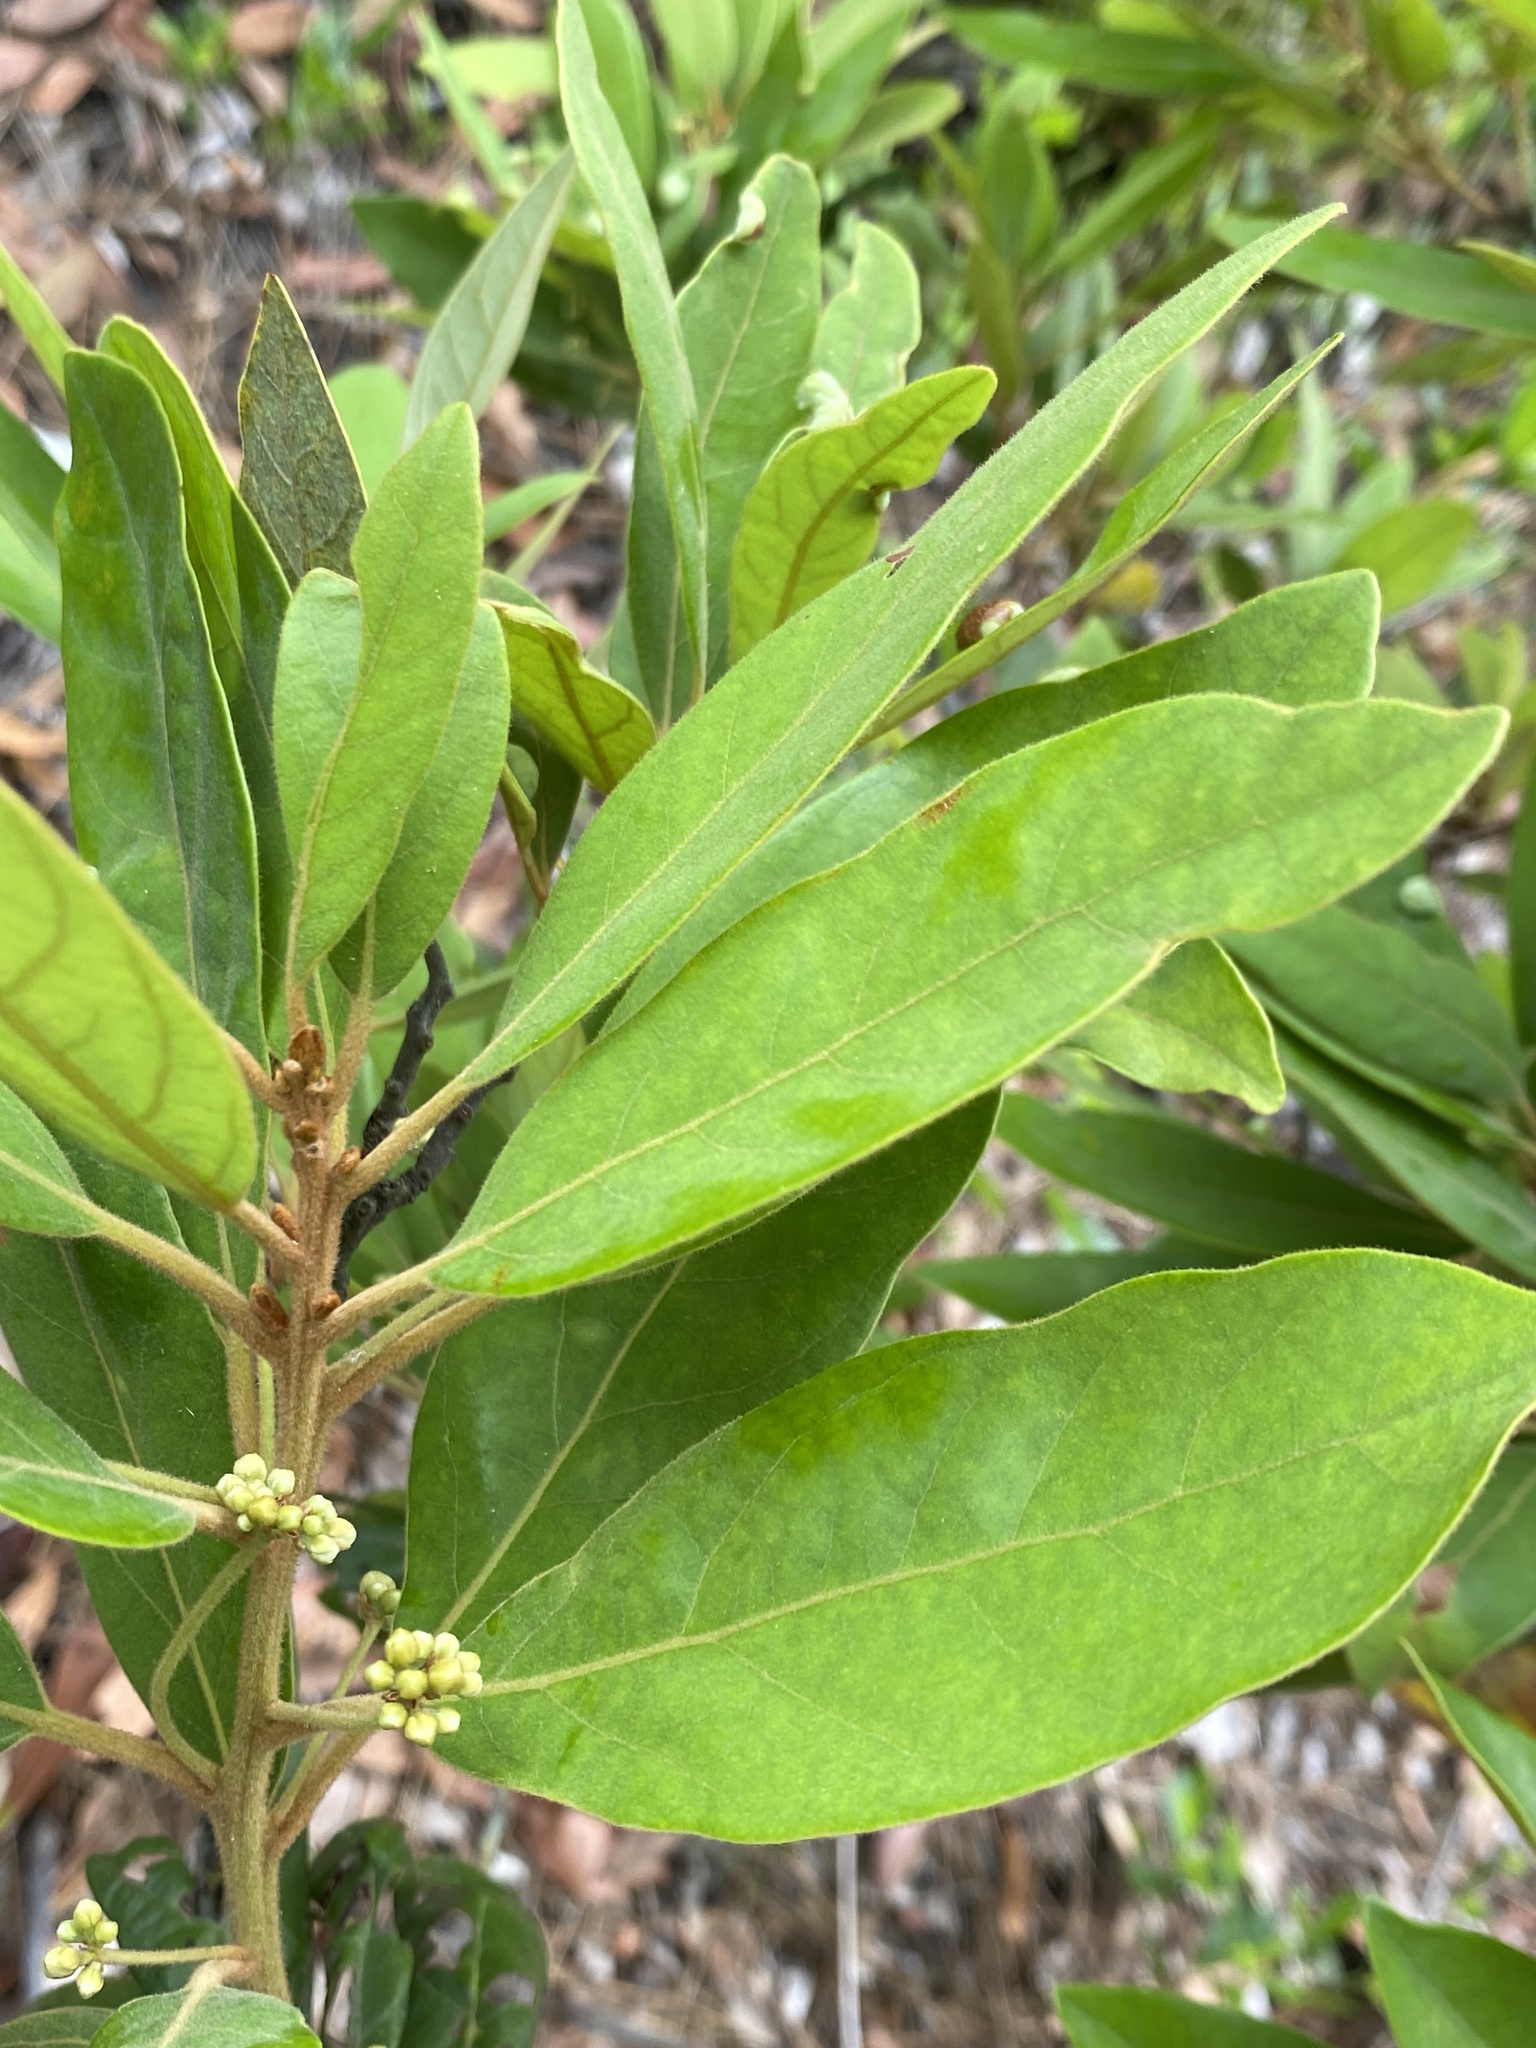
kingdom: Plantae
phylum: Tracheophyta
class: Magnoliopsida
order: Laurales
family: Lauraceae
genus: Persea
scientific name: Persea palustris
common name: Swampbay
